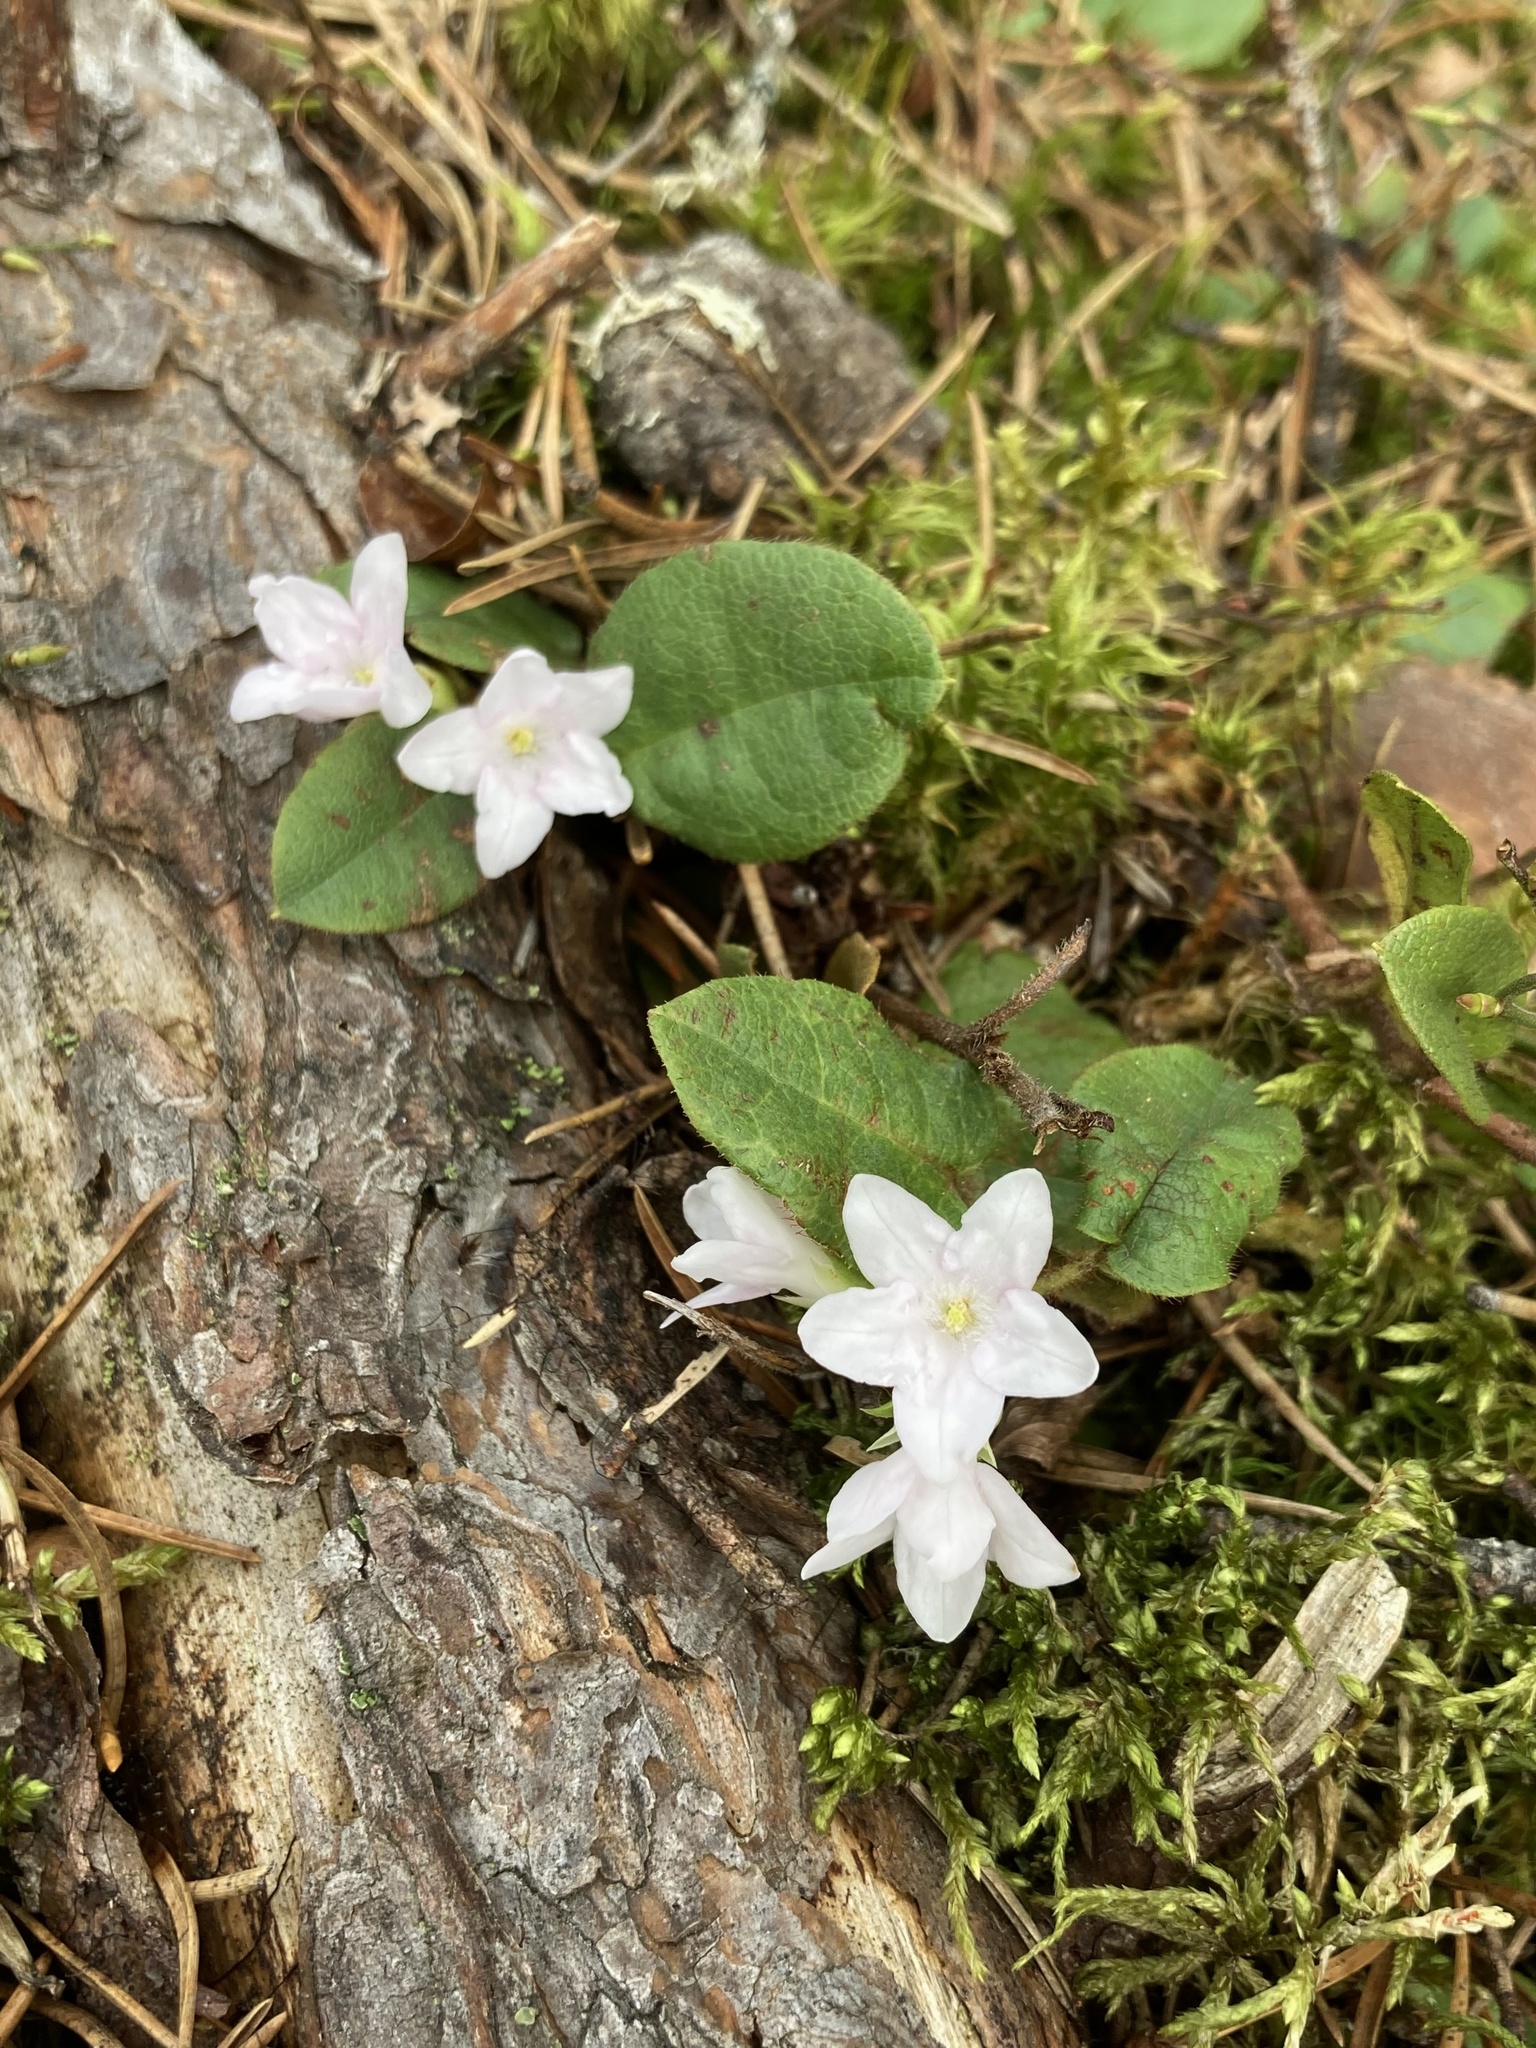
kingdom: Plantae
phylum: Tracheophyta
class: Magnoliopsida
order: Ericales
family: Ericaceae
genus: Epigaea
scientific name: Epigaea repens
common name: Gravelroot
